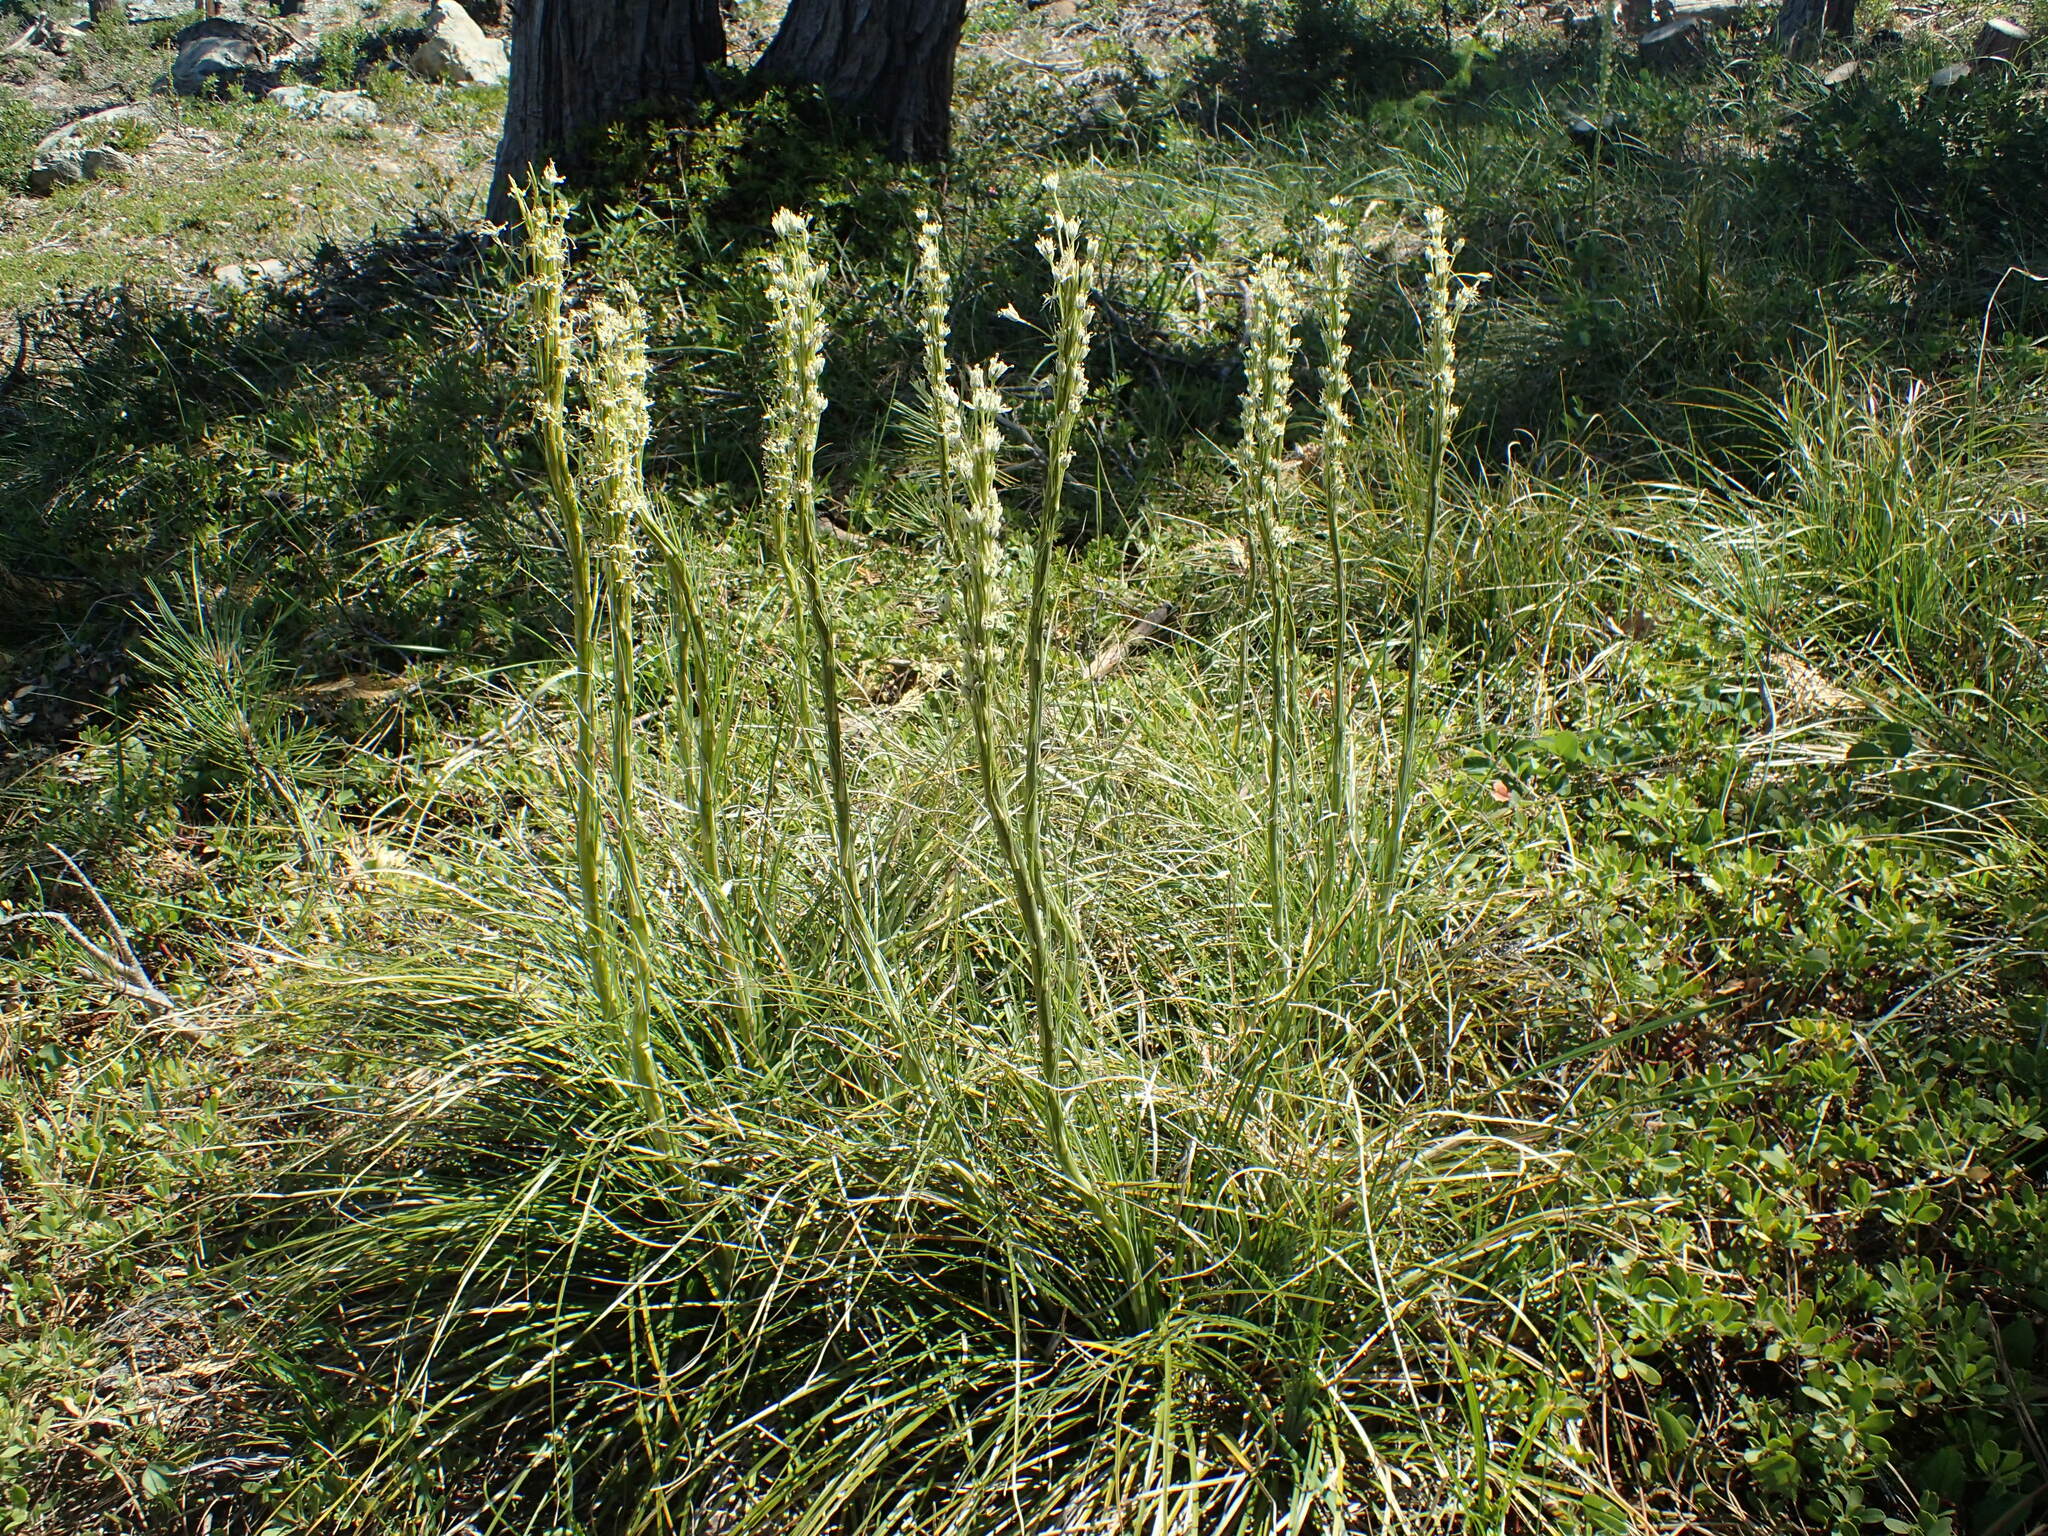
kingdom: Plantae
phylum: Tracheophyta
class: Liliopsida
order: Liliales
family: Melanthiaceae
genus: Xerophyllum
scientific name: Xerophyllum tenax
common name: Bear-grass
